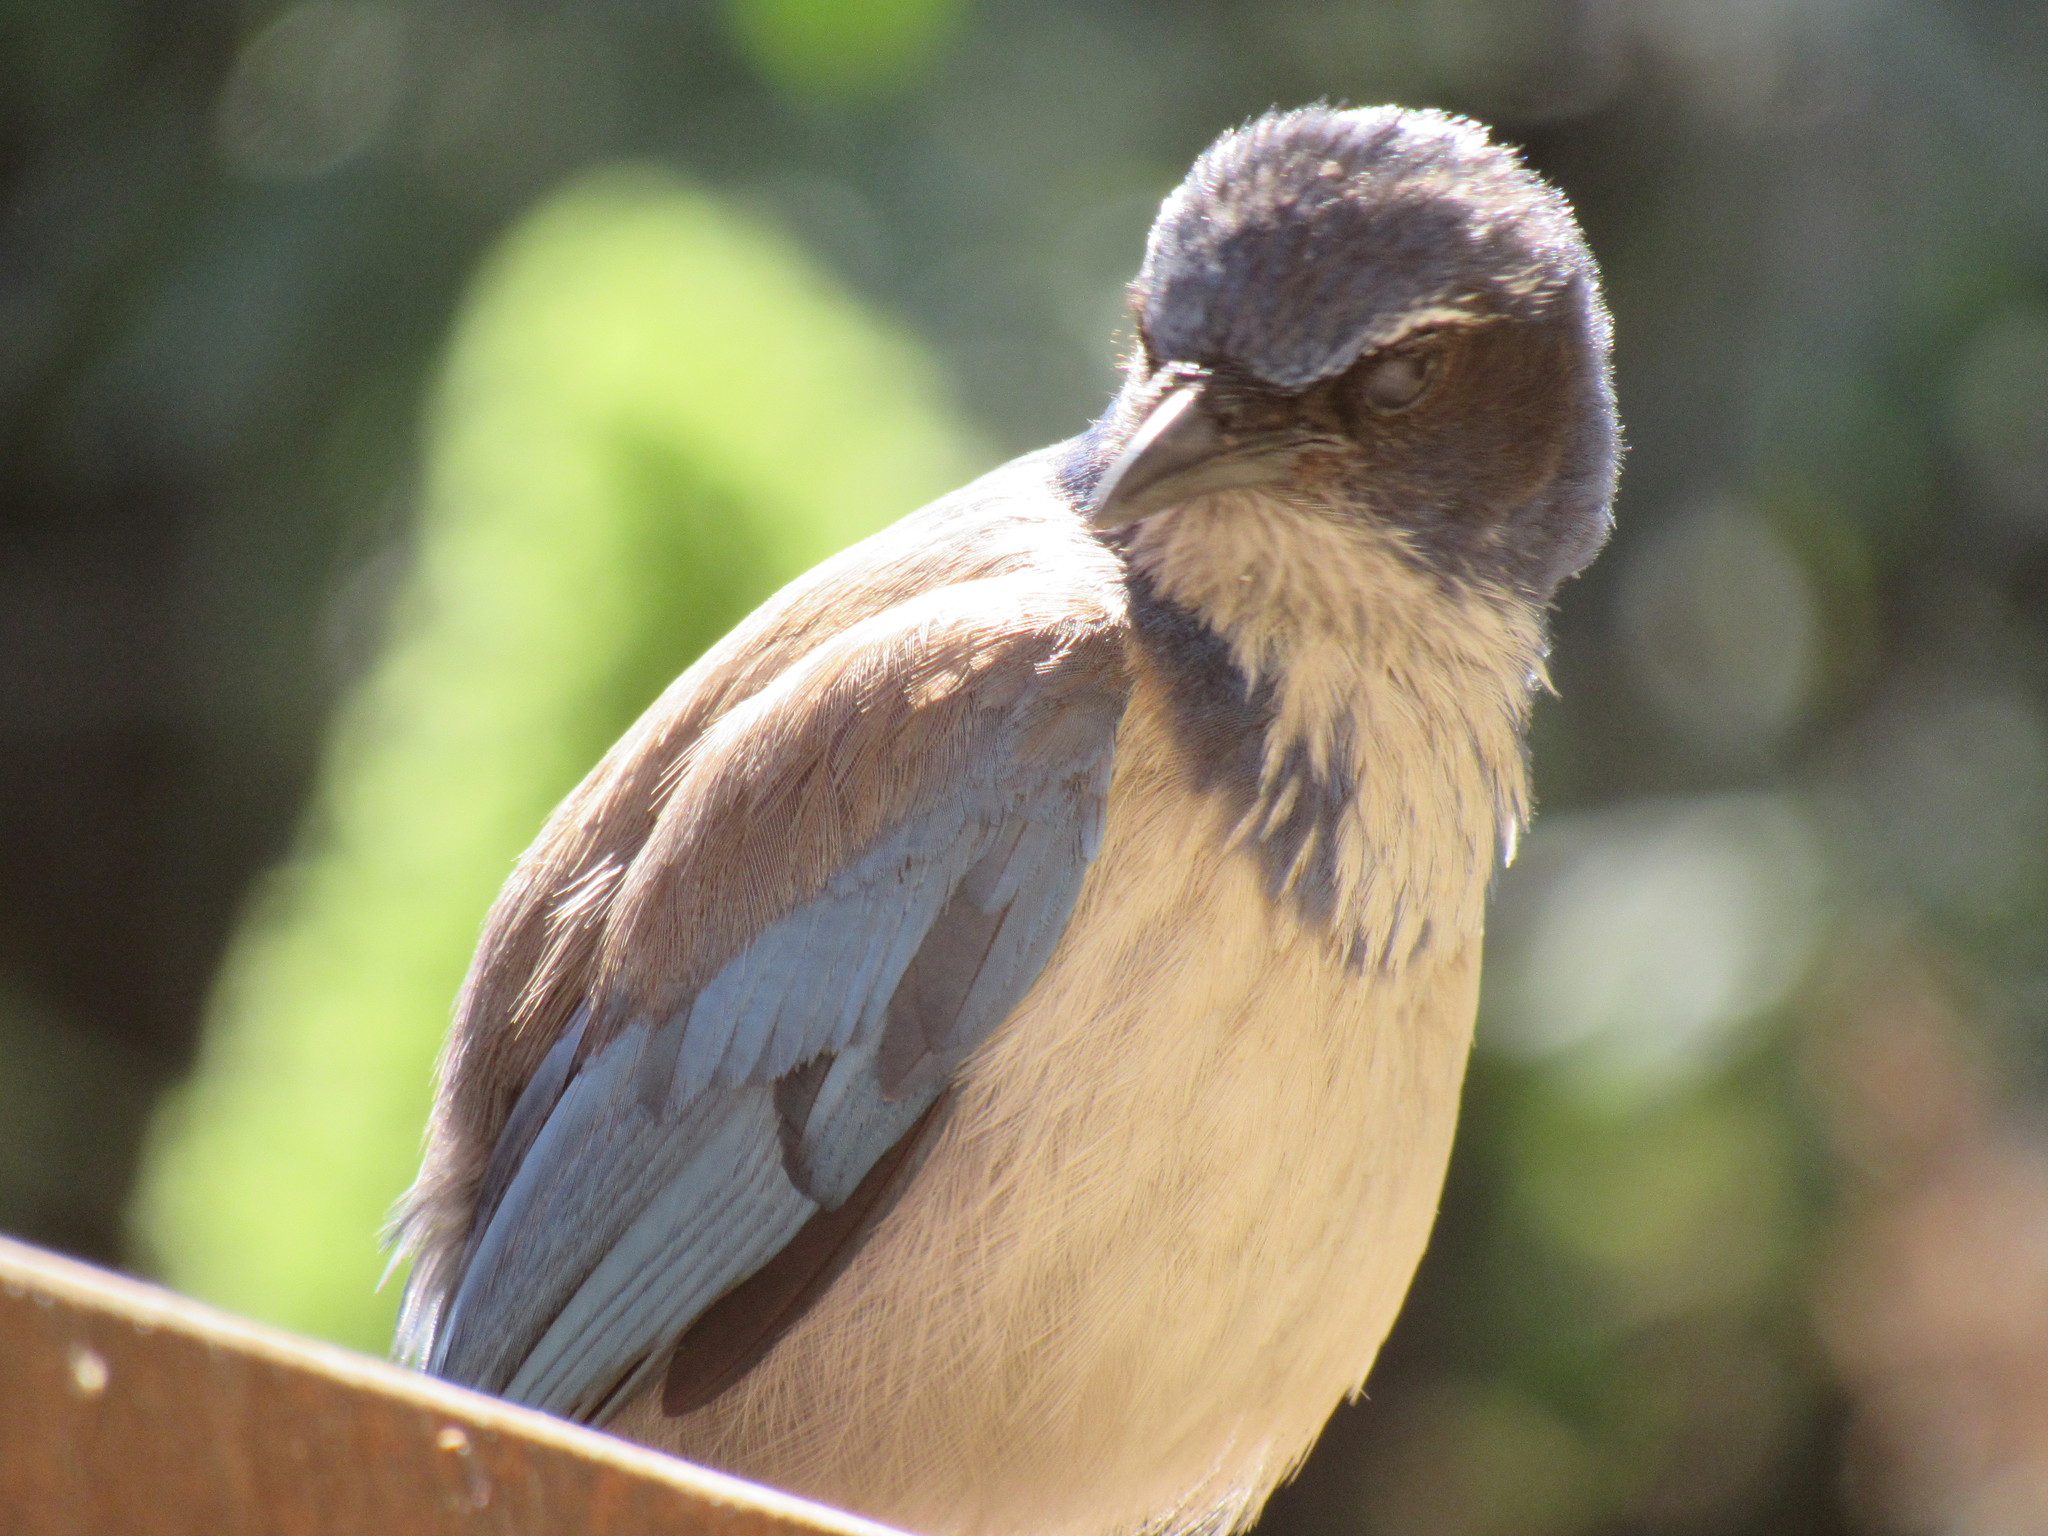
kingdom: Animalia
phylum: Chordata
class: Aves
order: Passeriformes
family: Corvidae
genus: Aphelocoma
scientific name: Aphelocoma californica
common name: California scrub-jay
